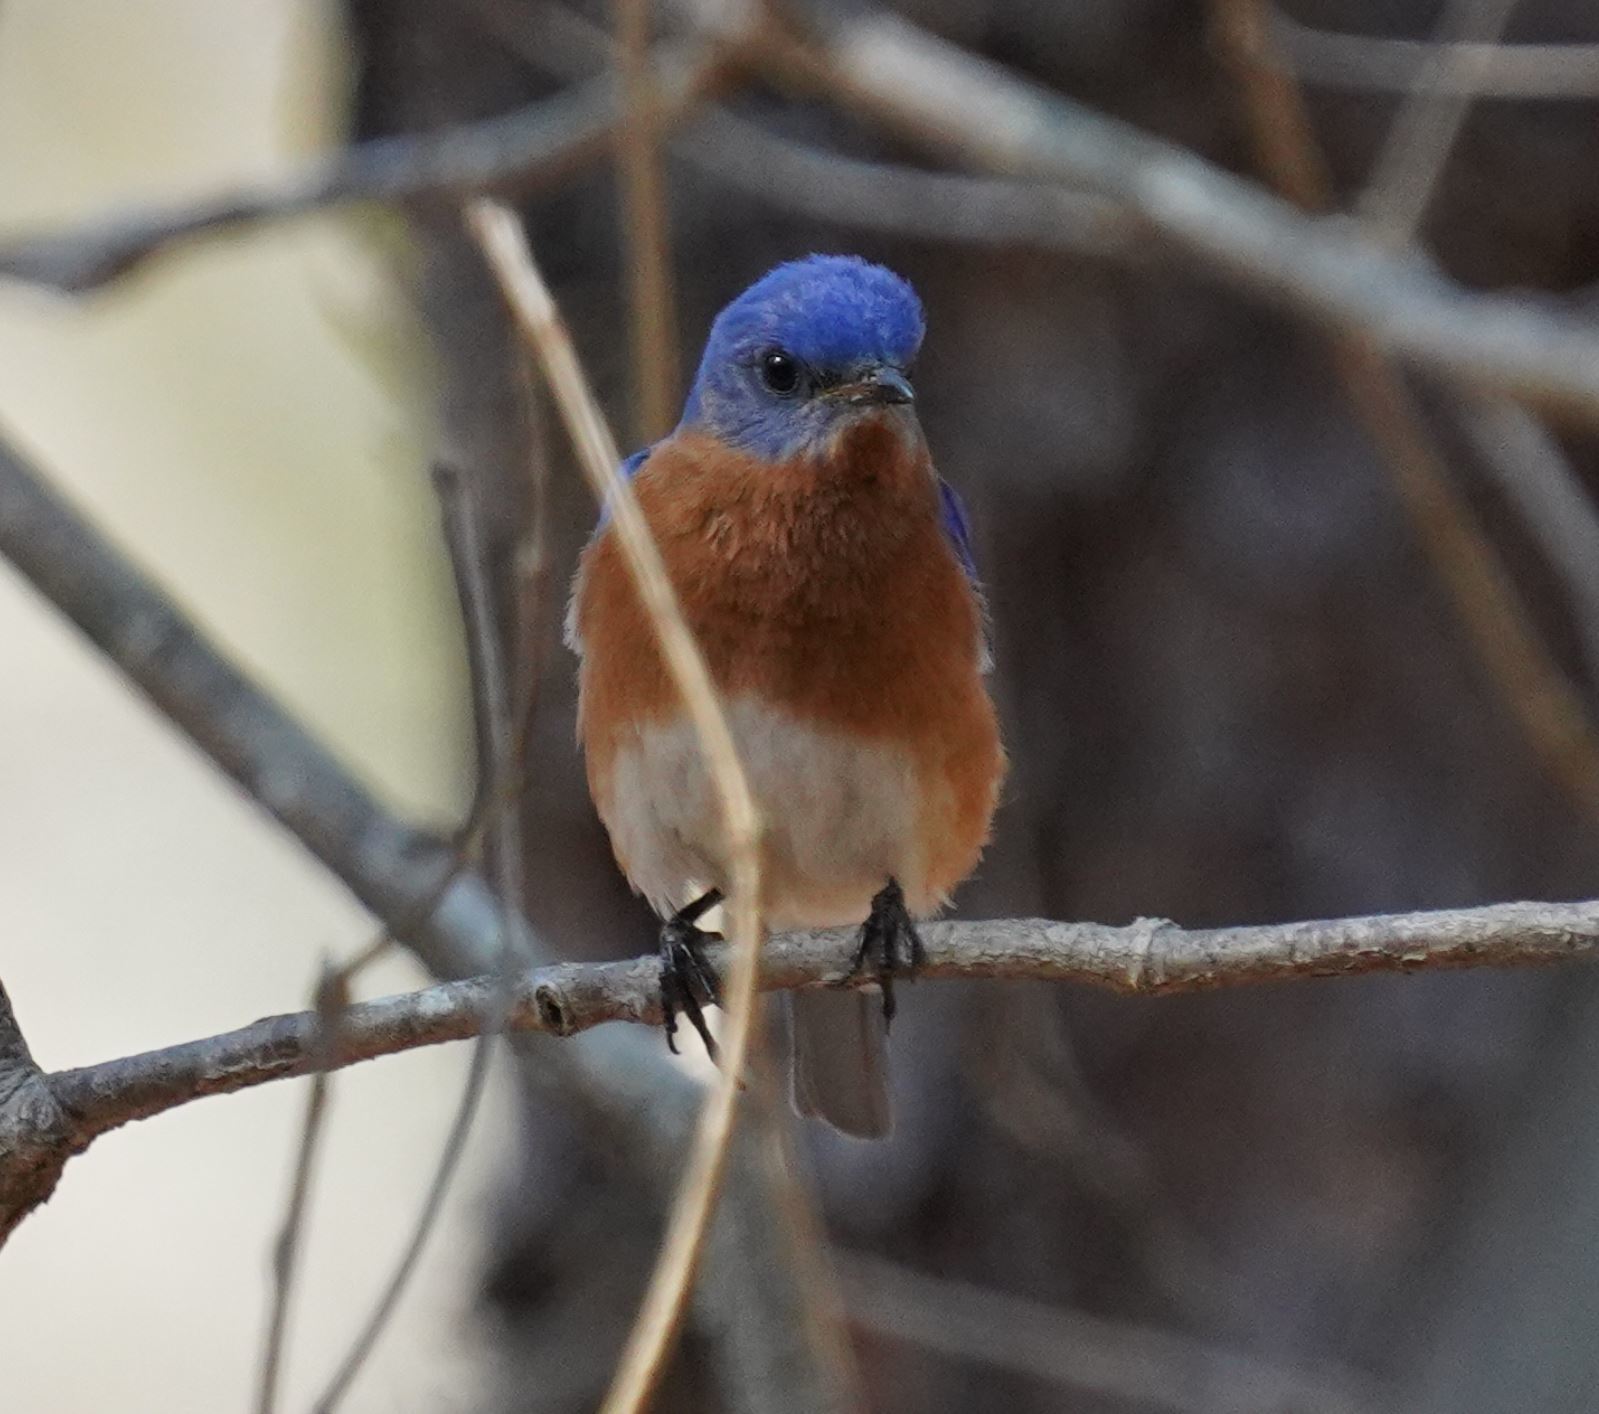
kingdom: Animalia
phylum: Chordata
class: Aves
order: Passeriformes
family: Turdidae
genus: Sialia
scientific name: Sialia sialis
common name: Eastern bluebird
